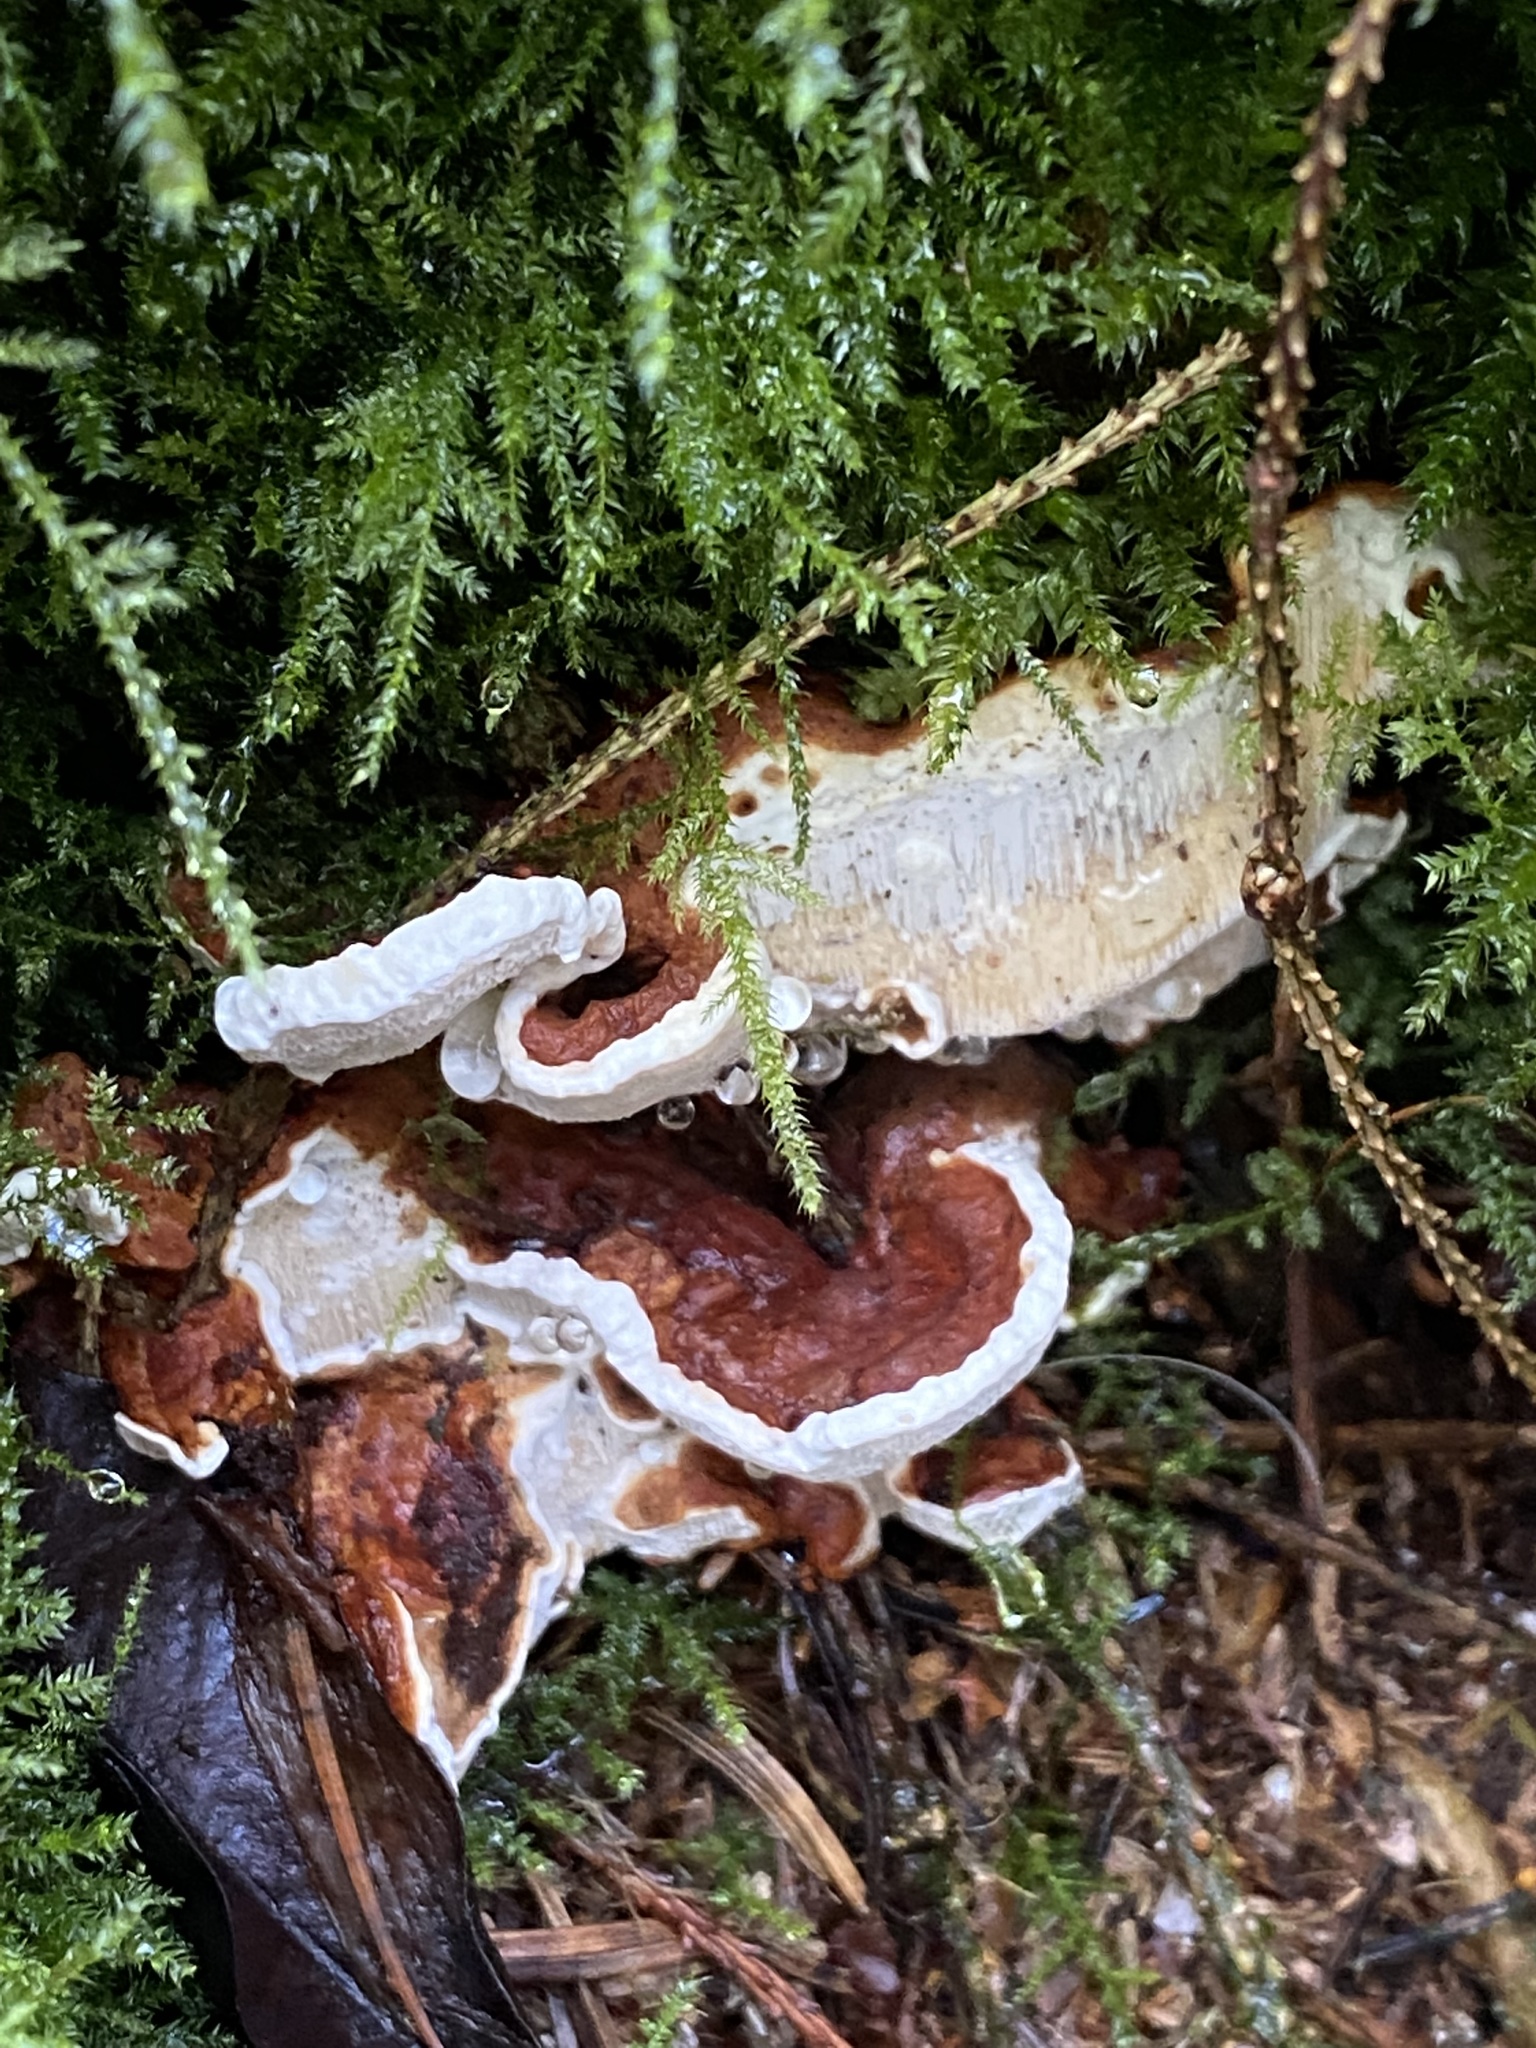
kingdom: Fungi
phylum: Basidiomycota
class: Agaricomycetes
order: Russulales
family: Bondarzewiaceae
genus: Heterobasidion
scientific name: Heterobasidion annosum
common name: Root rot
